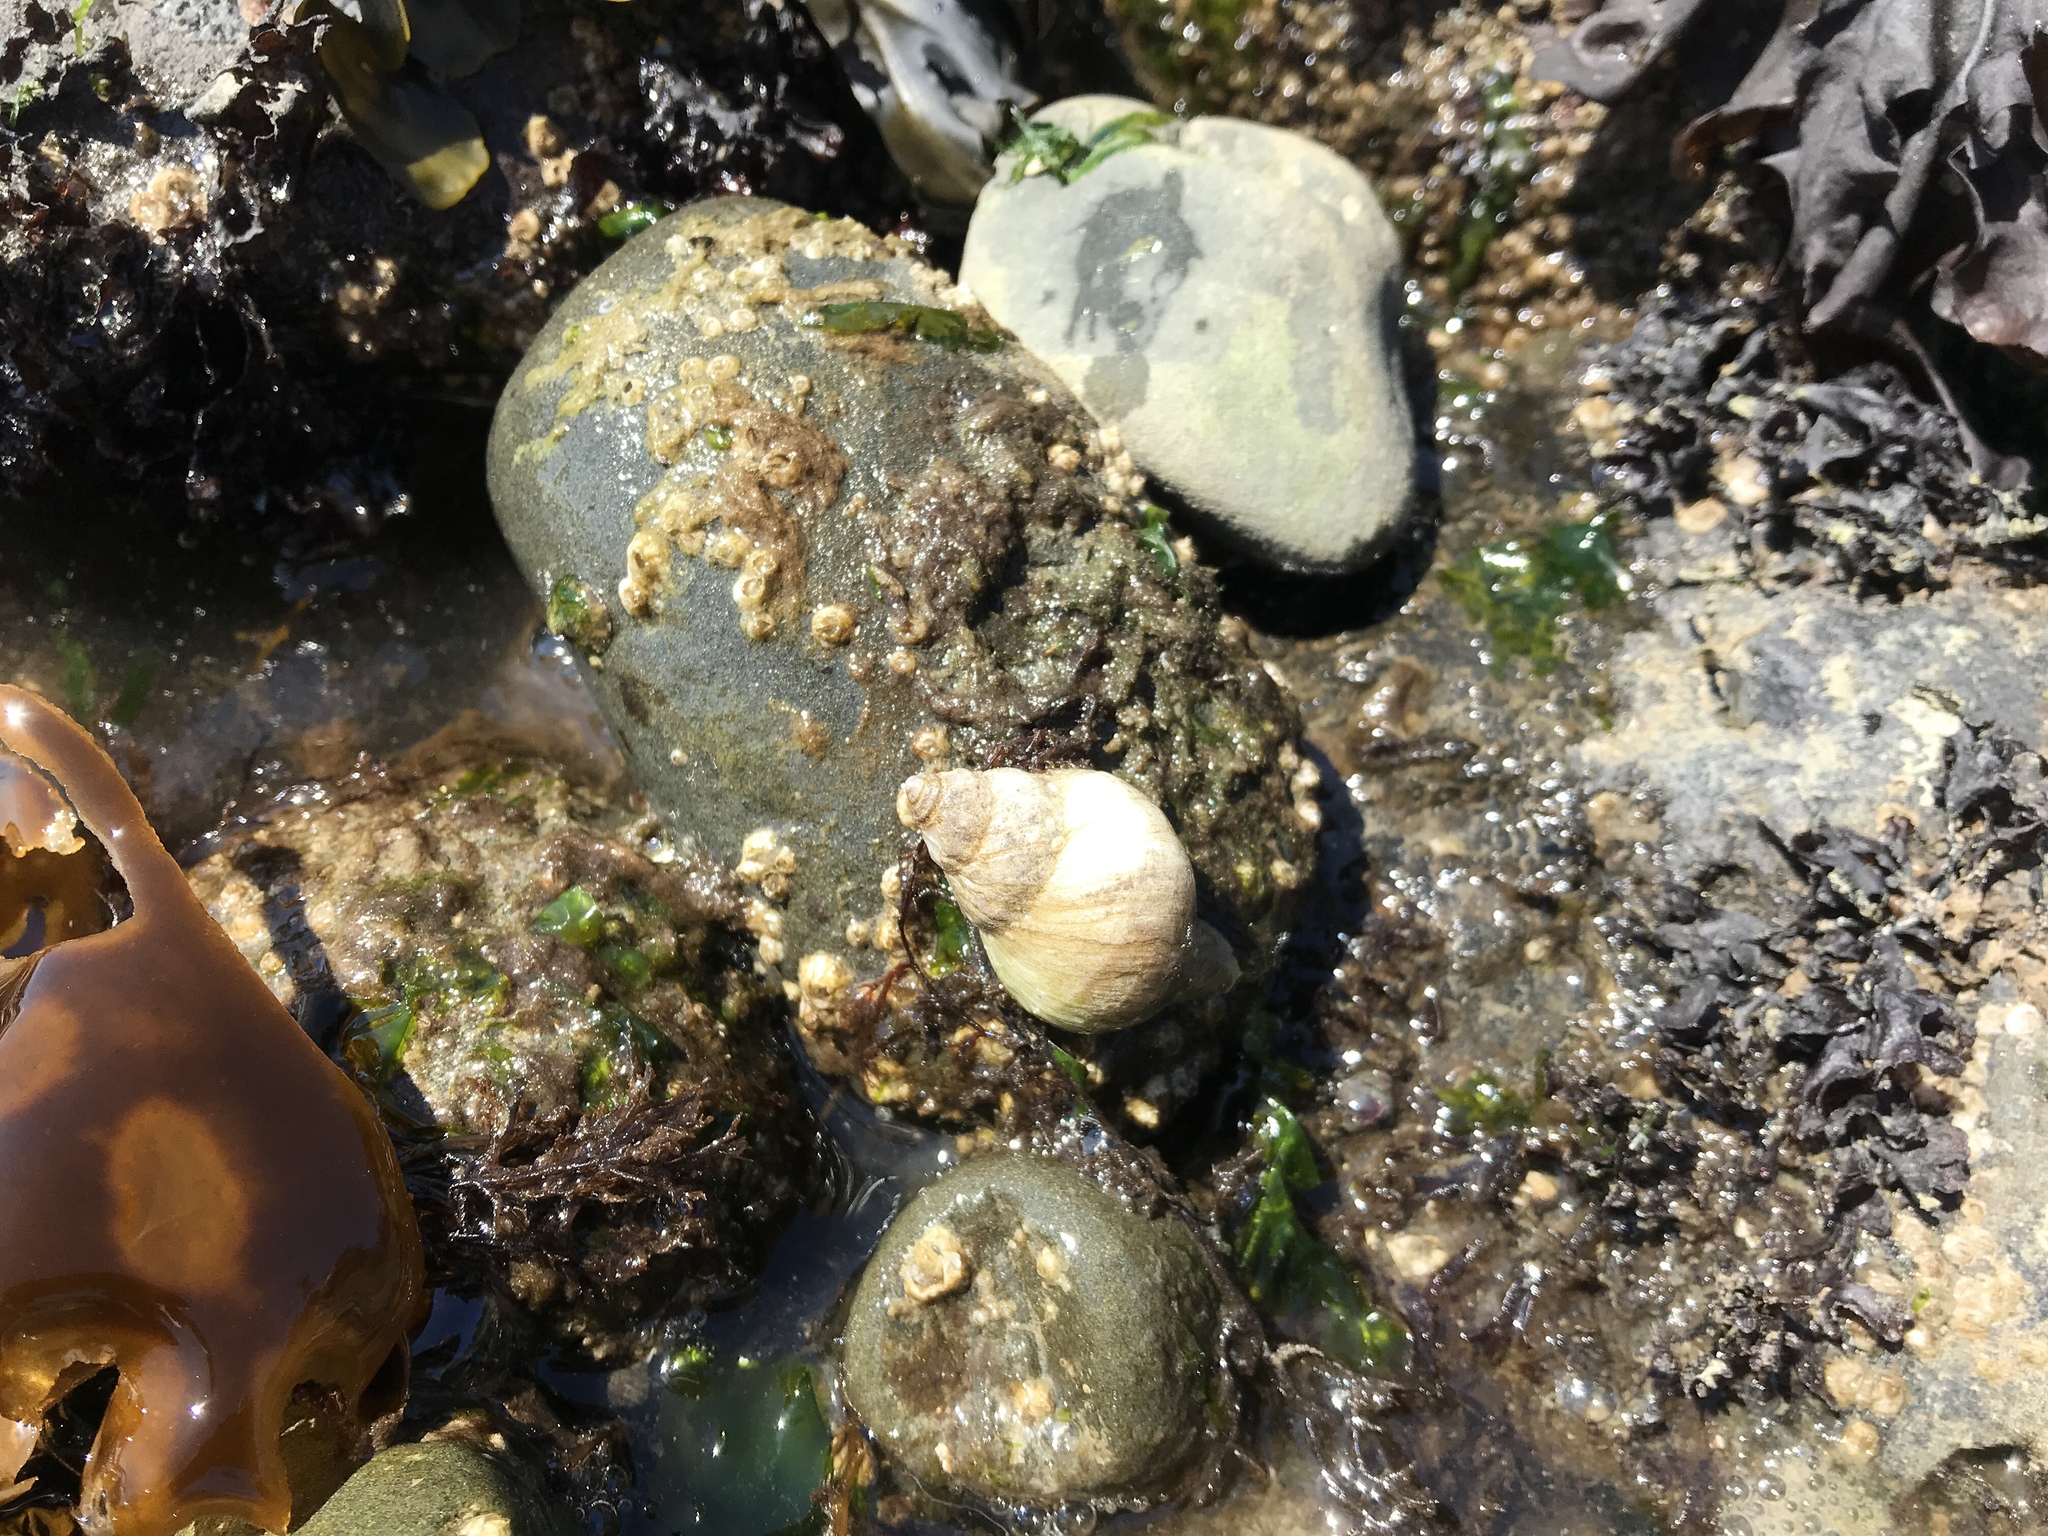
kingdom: Animalia
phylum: Mollusca
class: Gastropoda
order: Neogastropoda
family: Muricidae
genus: Nucella
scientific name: Nucella lamellosa
